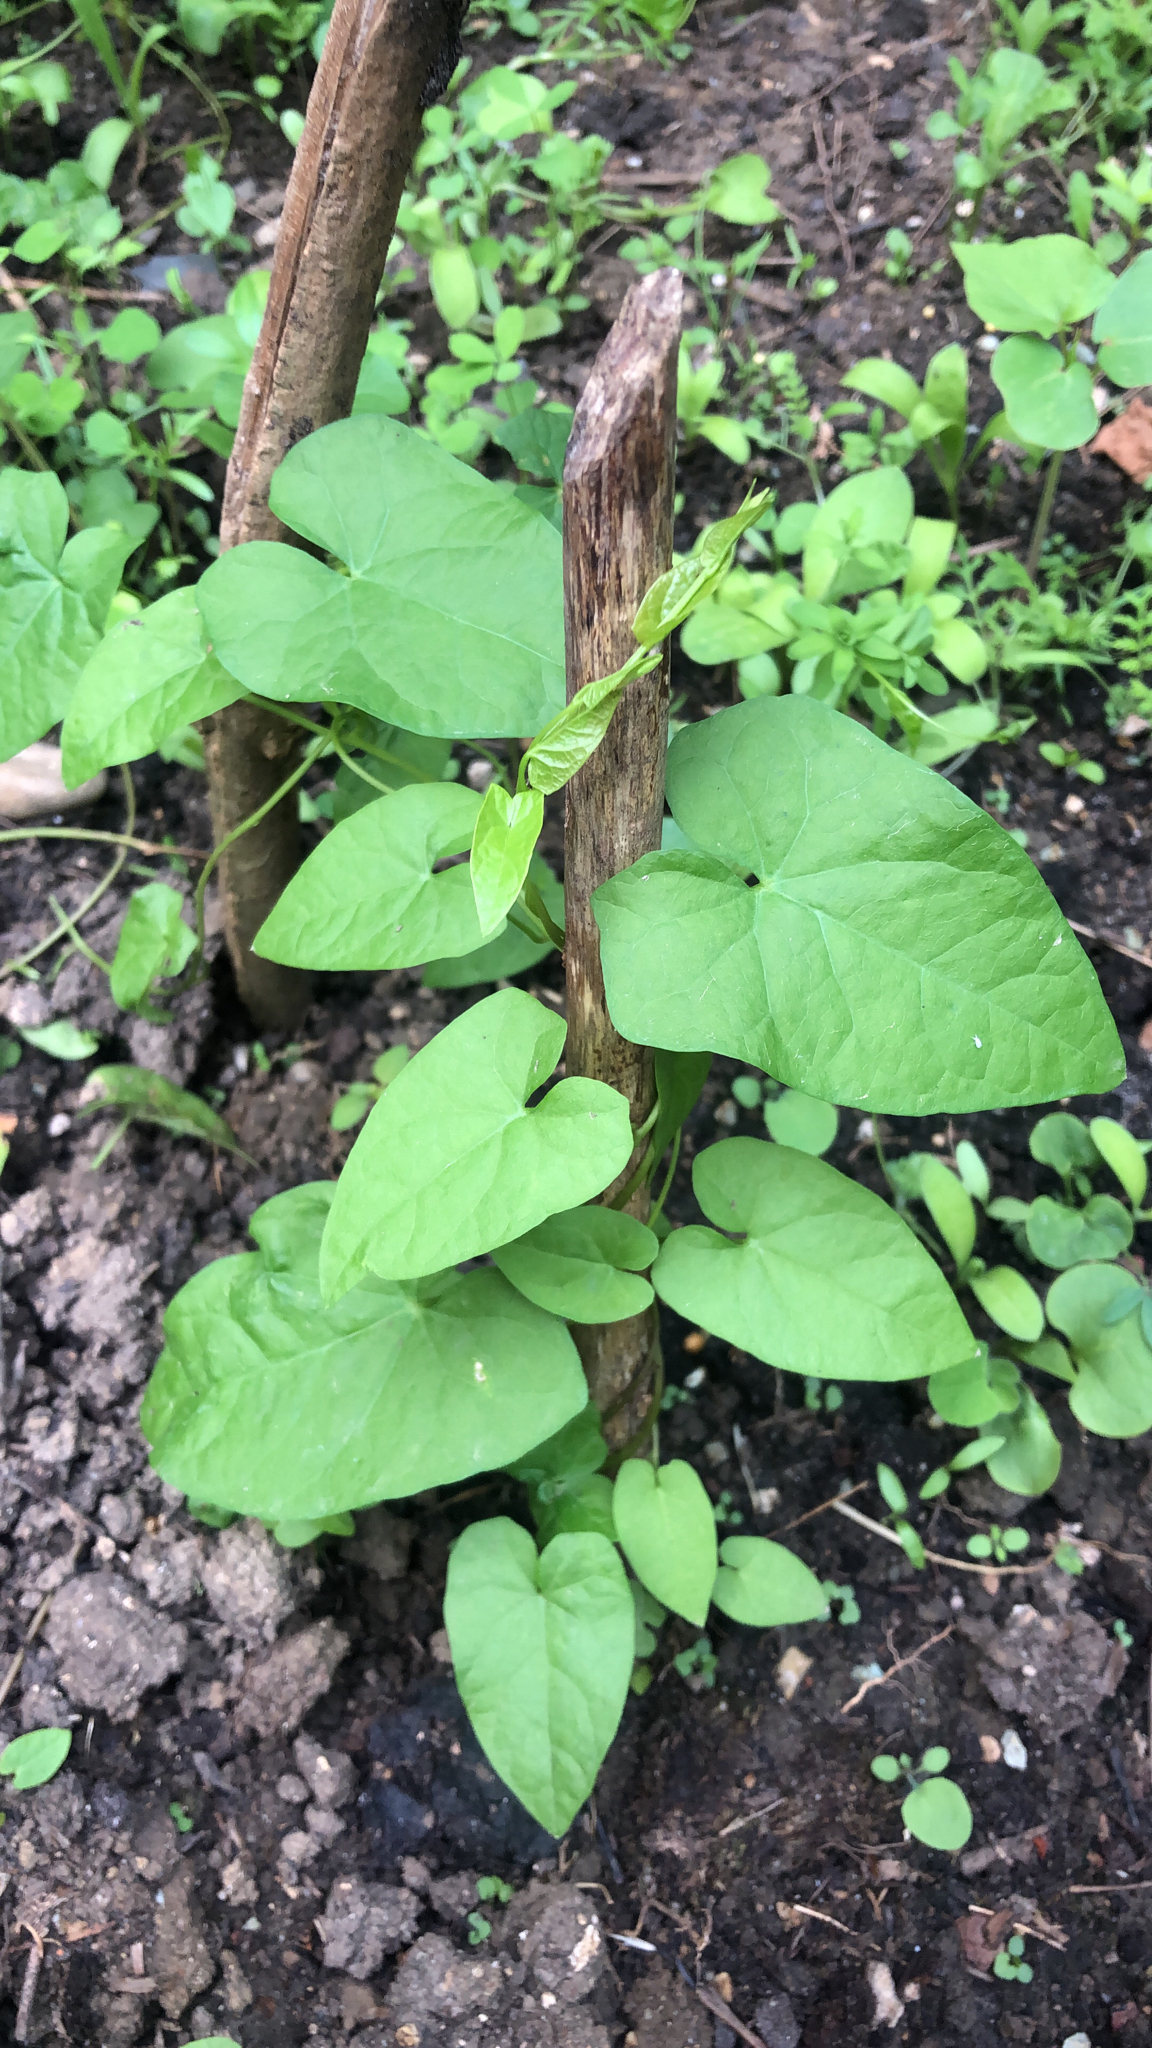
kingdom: Plantae
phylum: Tracheophyta
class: Magnoliopsida
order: Solanales
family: Convolvulaceae
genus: Calystegia
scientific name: Calystegia
